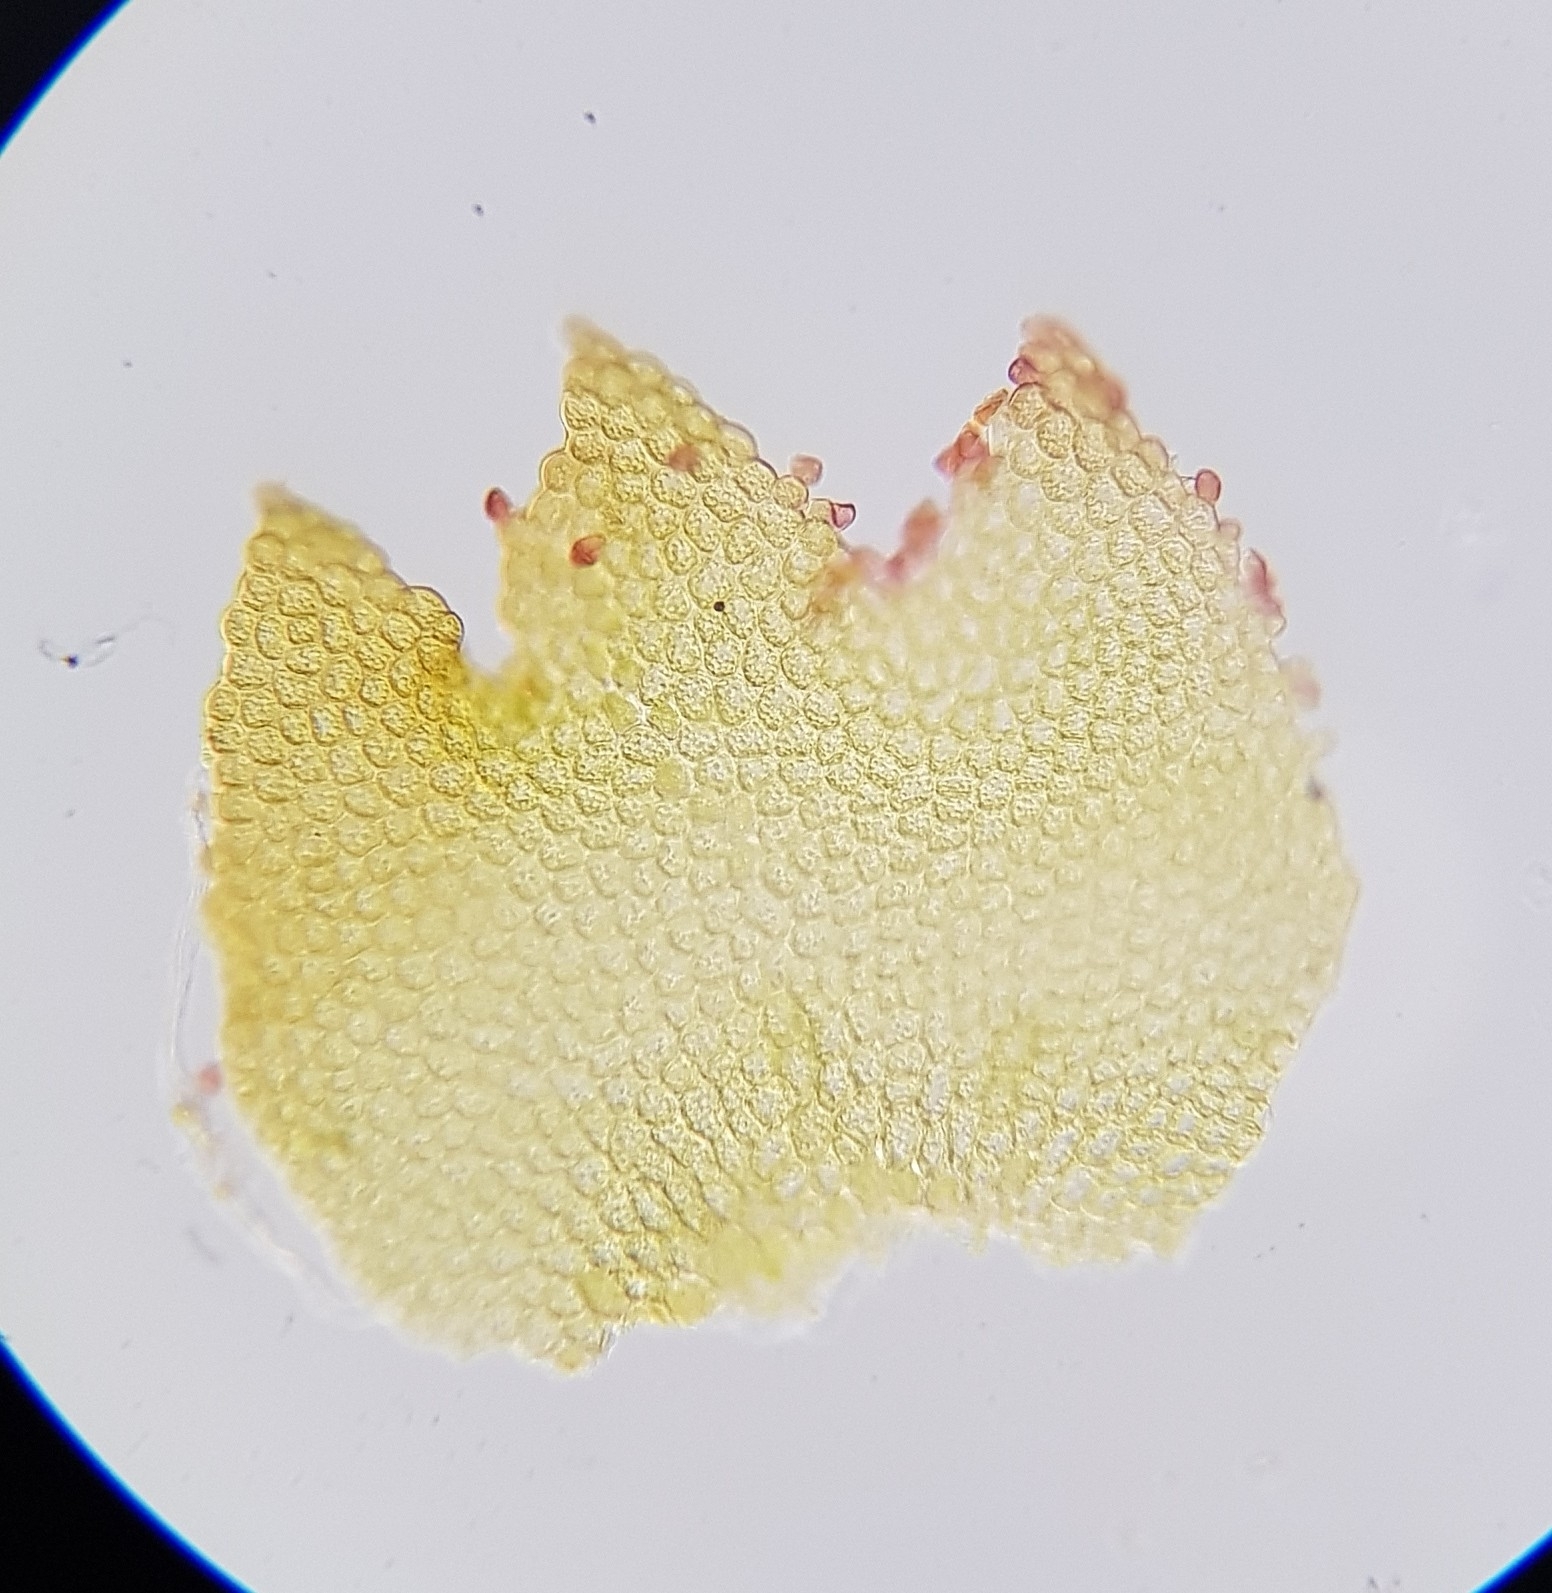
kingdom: Plantae
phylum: Marchantiophyta
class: Jungermanniopsida
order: Jungermanniales
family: Anastrophyllaceae
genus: Barbilophozia
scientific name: Barbilophozia hatcheri
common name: Hatcher s pawwort
